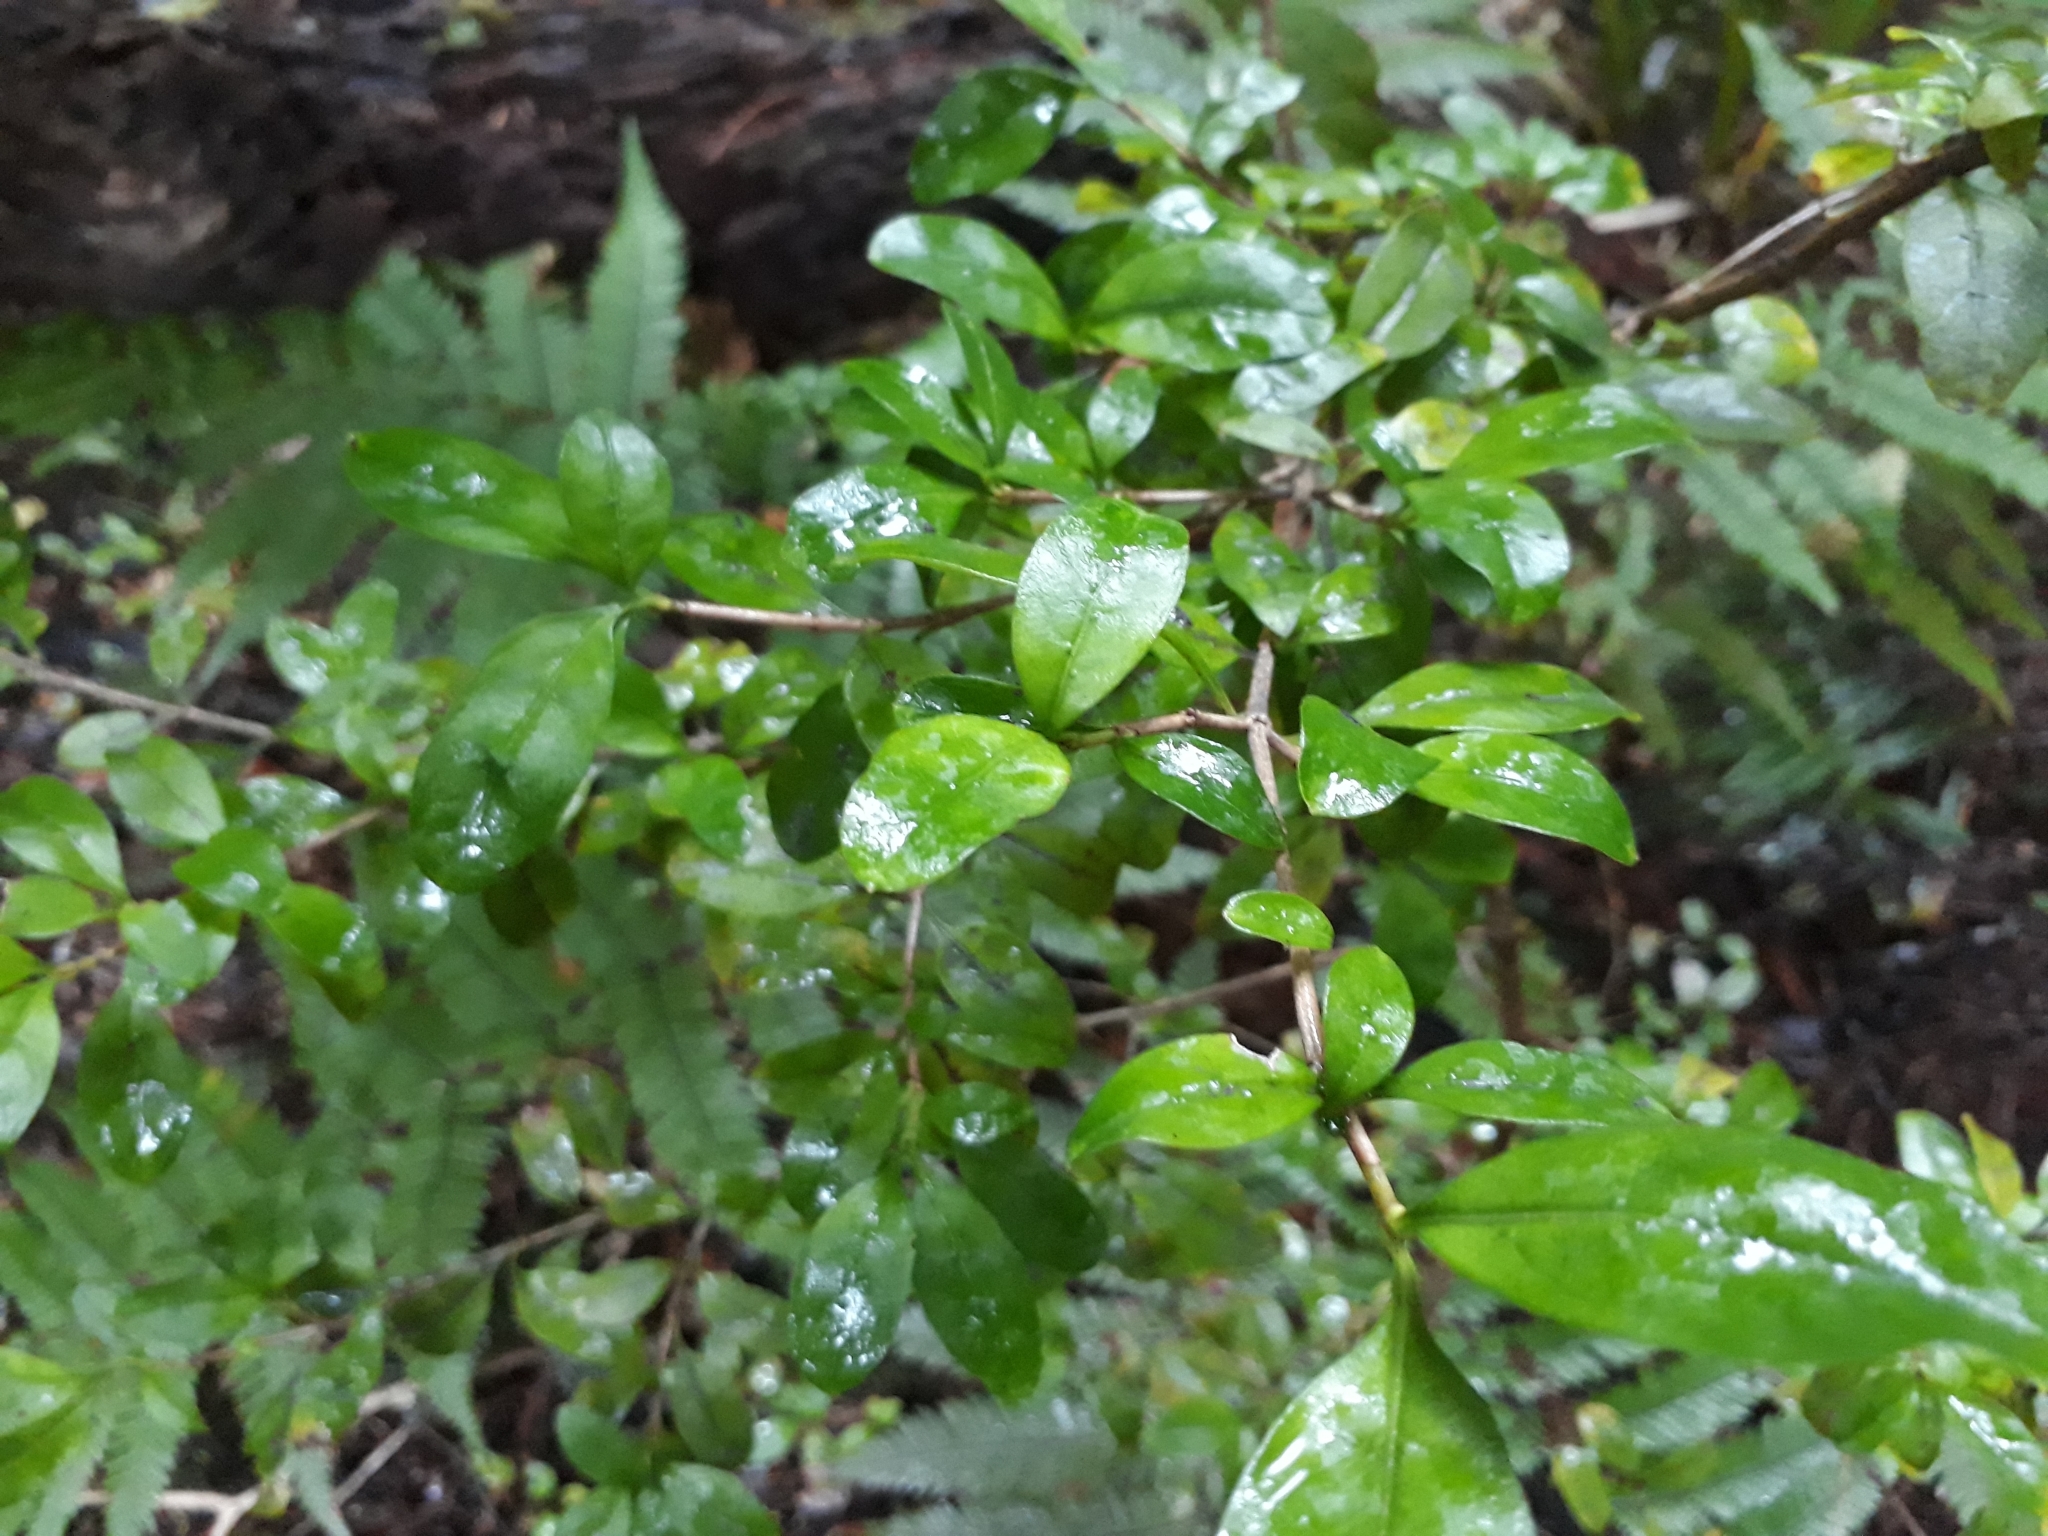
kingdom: Plantae
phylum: Tracheophyta
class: Magnoliopsida
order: Gentianales
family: Rubiaceae
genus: Coprosma
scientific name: Coprosma colensoi
